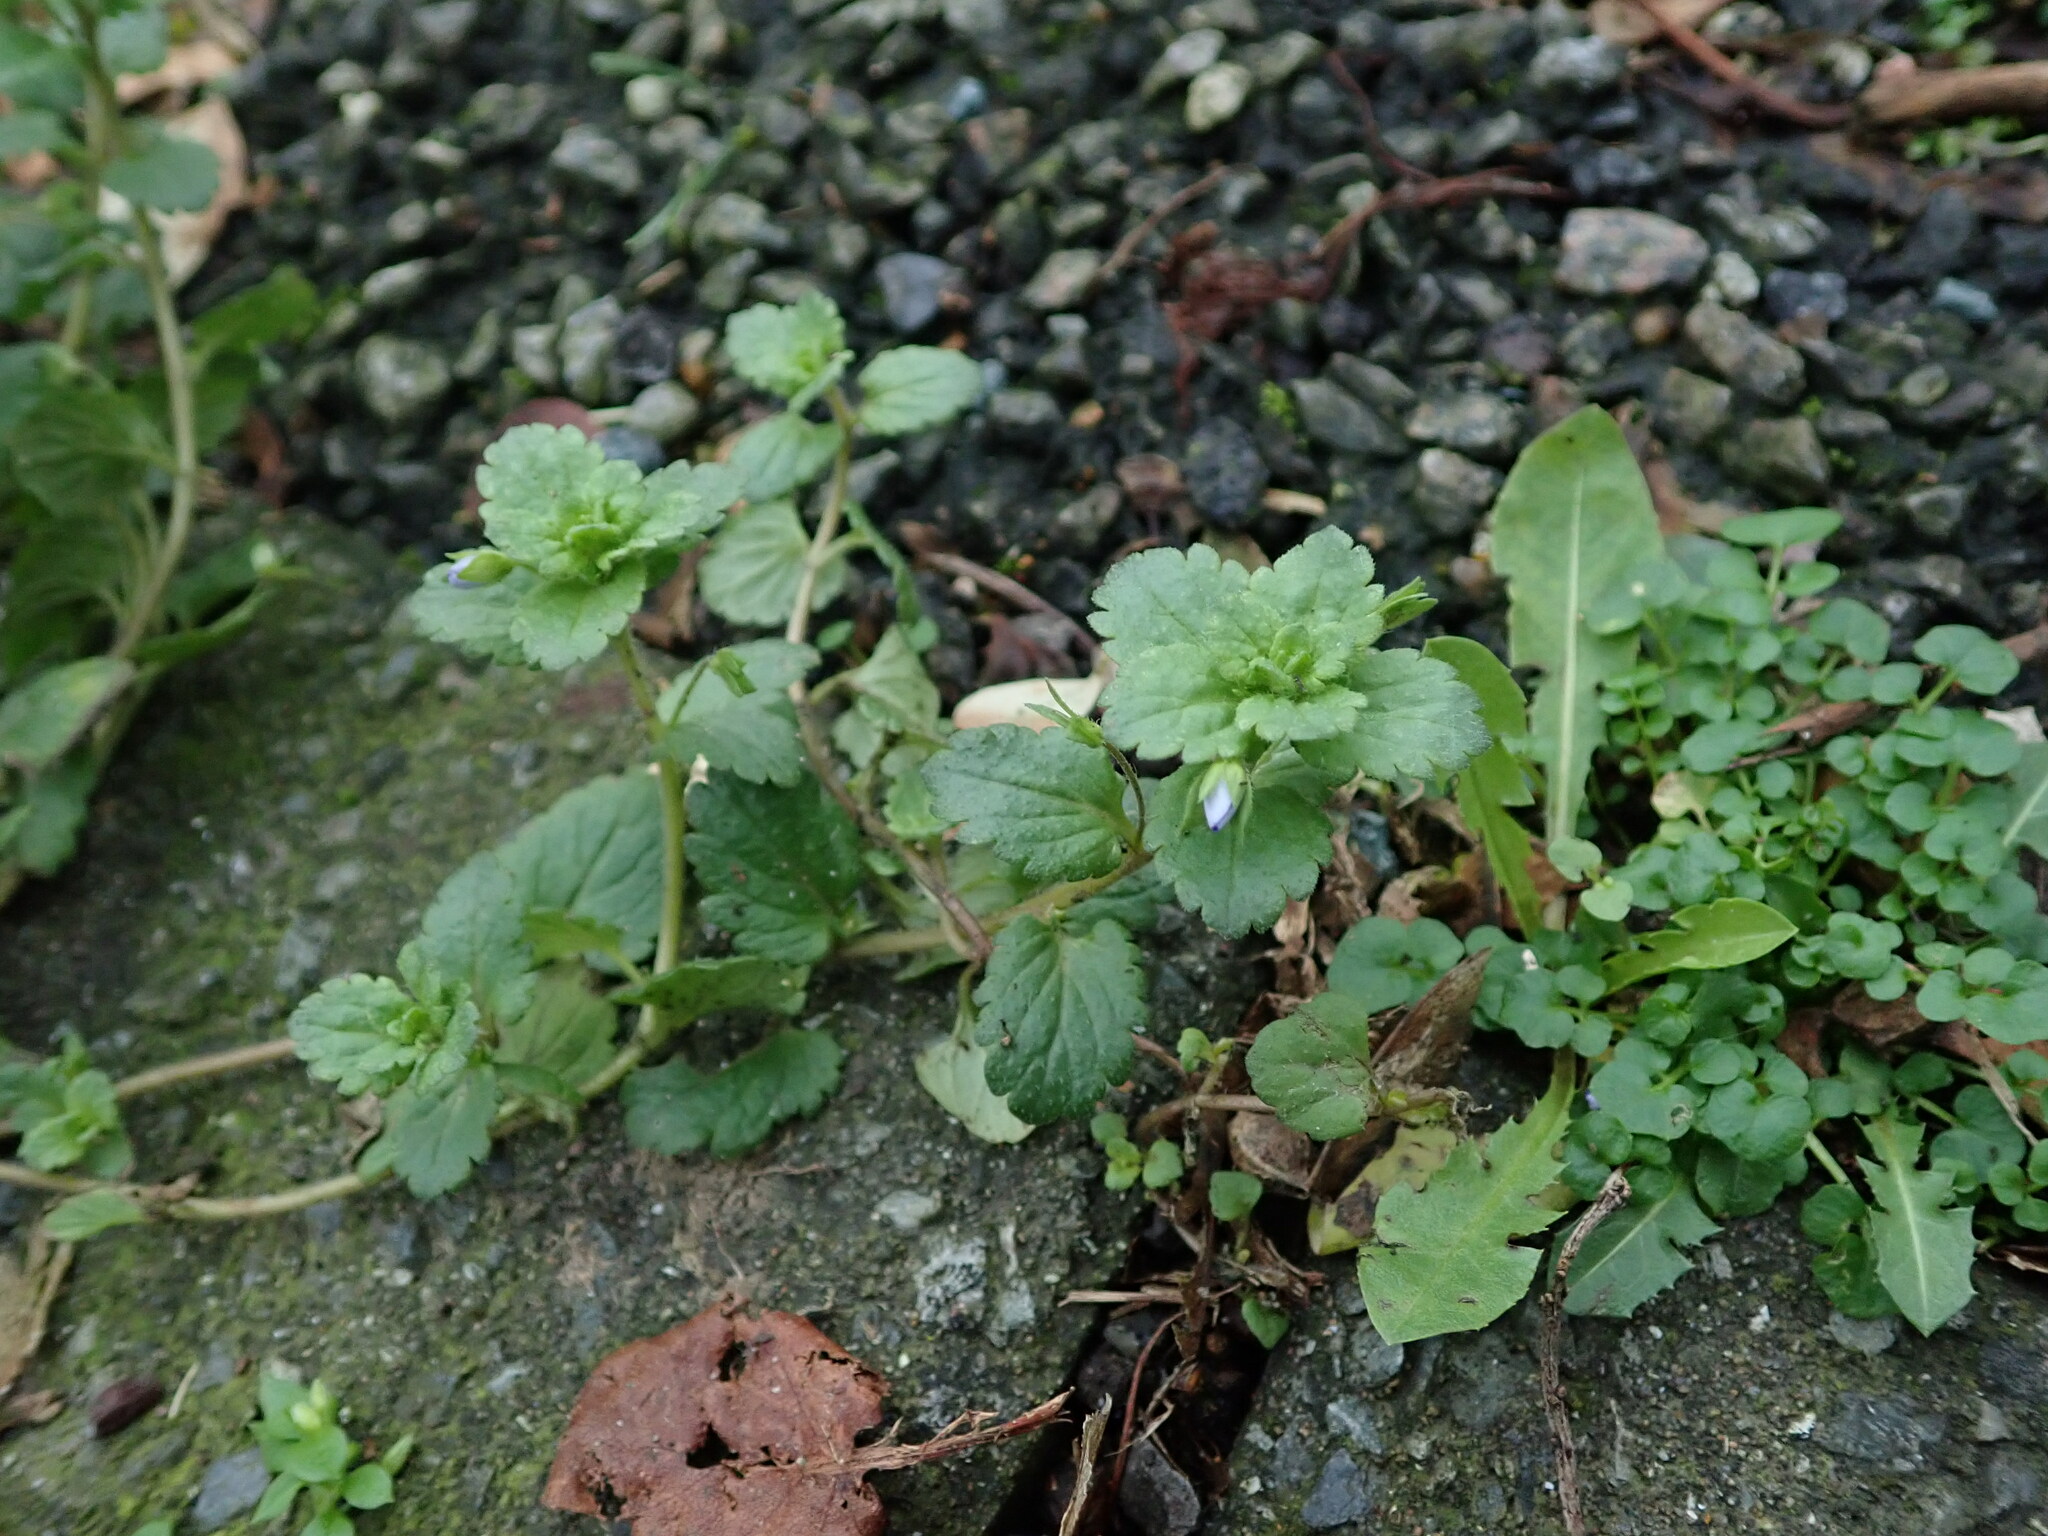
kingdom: Plantae
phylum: Tracheophyta
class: Magnoliopsida
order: Lamiales
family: Plantaginaceae
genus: Veronica
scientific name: Veronica persica
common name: Common field-speedwell
